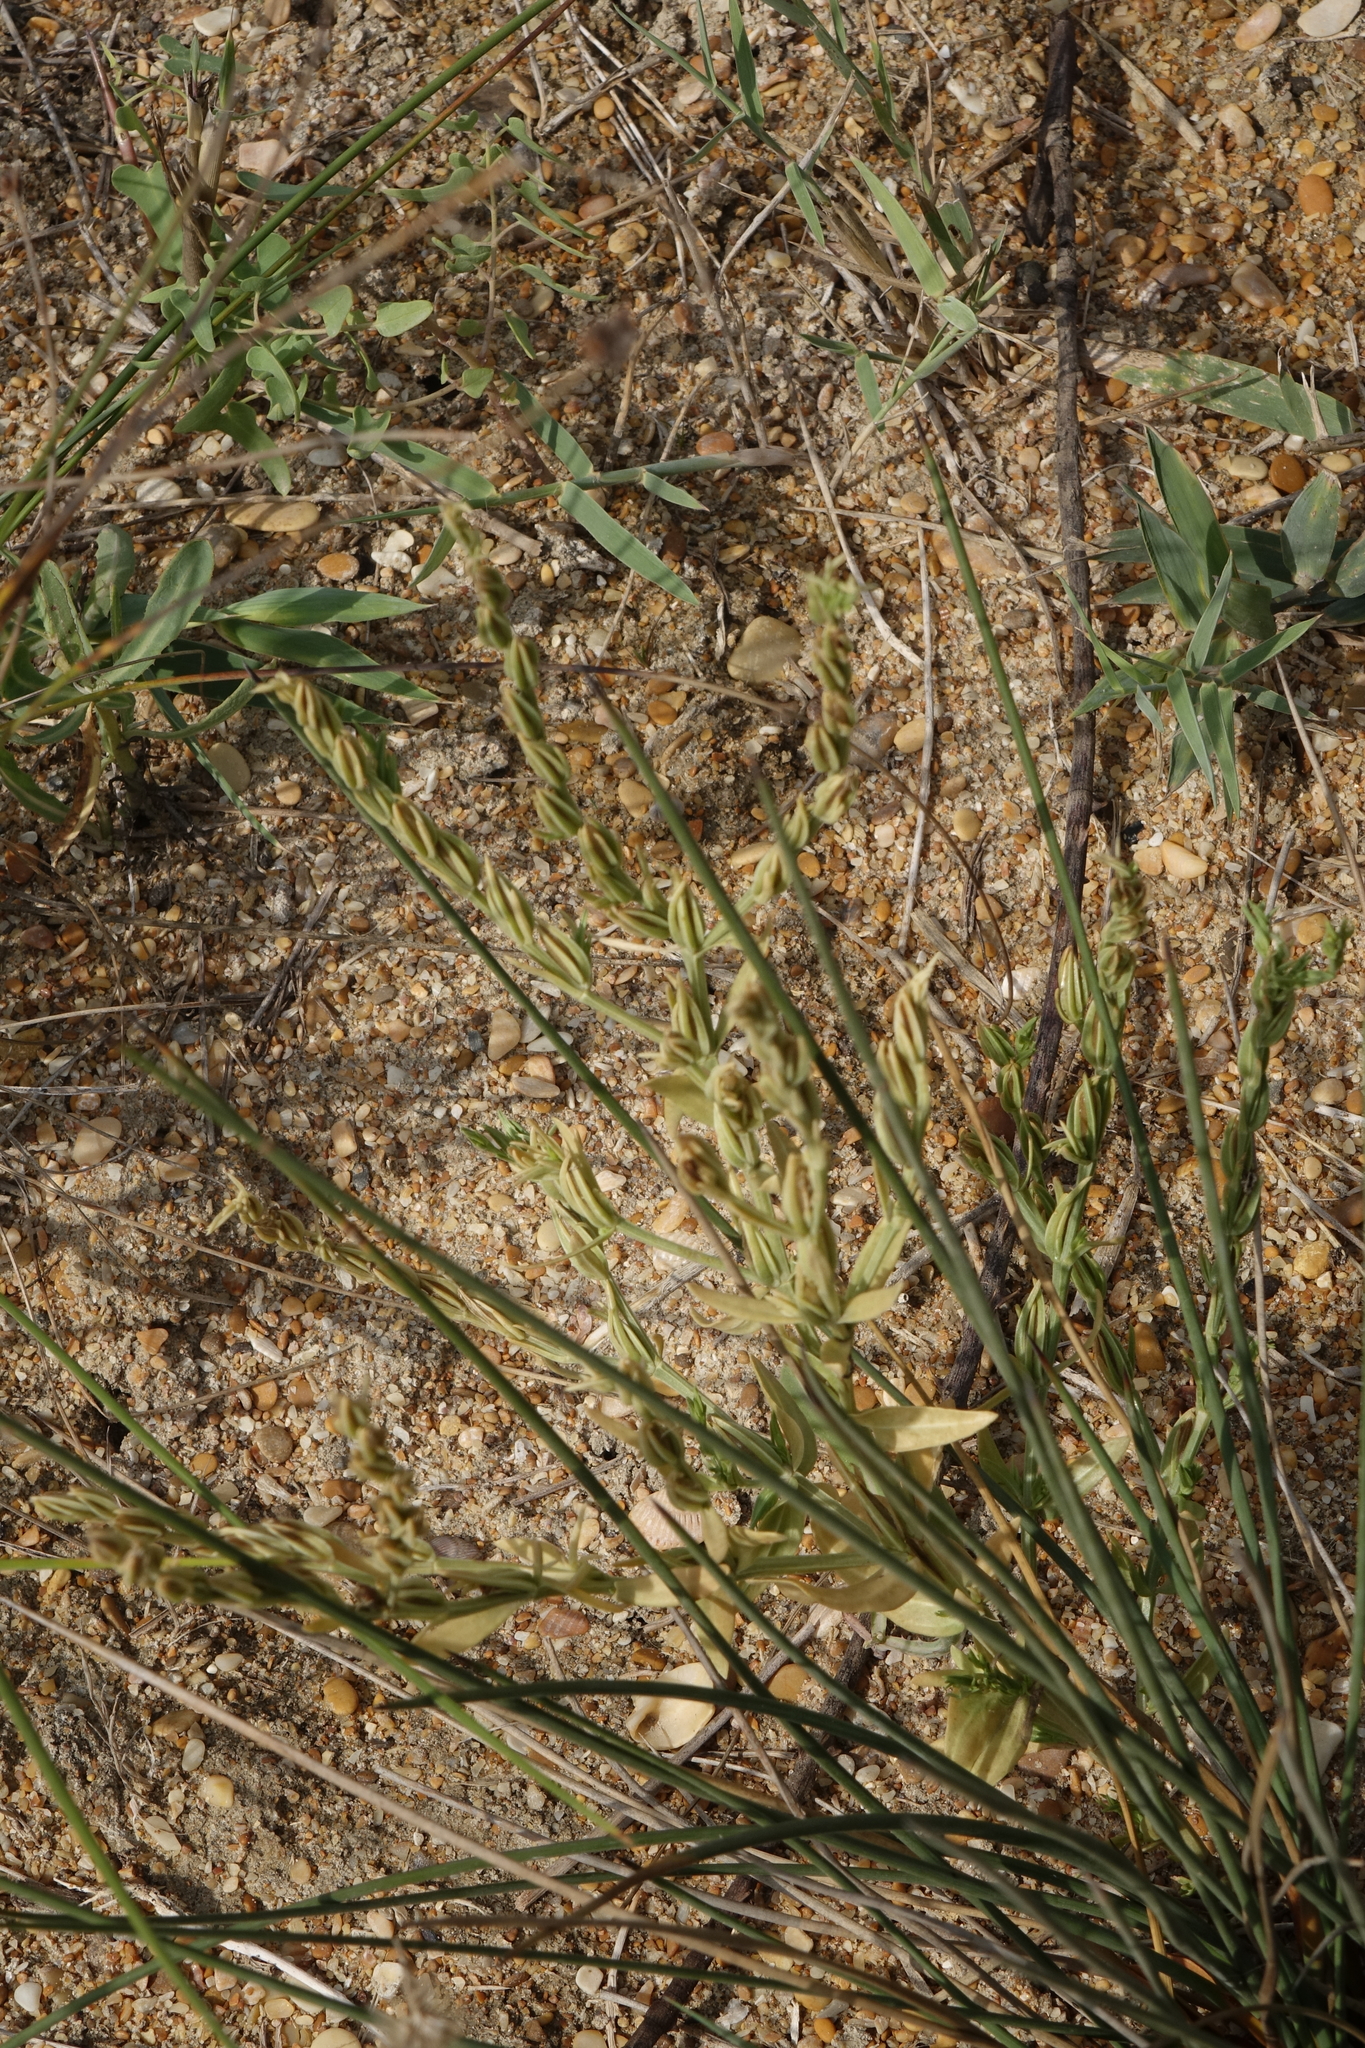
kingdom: Plantae
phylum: Tracheophyta
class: Magnoliopsida
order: Gentianales
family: Gentianaceae
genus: Schenkia
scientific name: Schenkia spicata
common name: Spiked centaury
